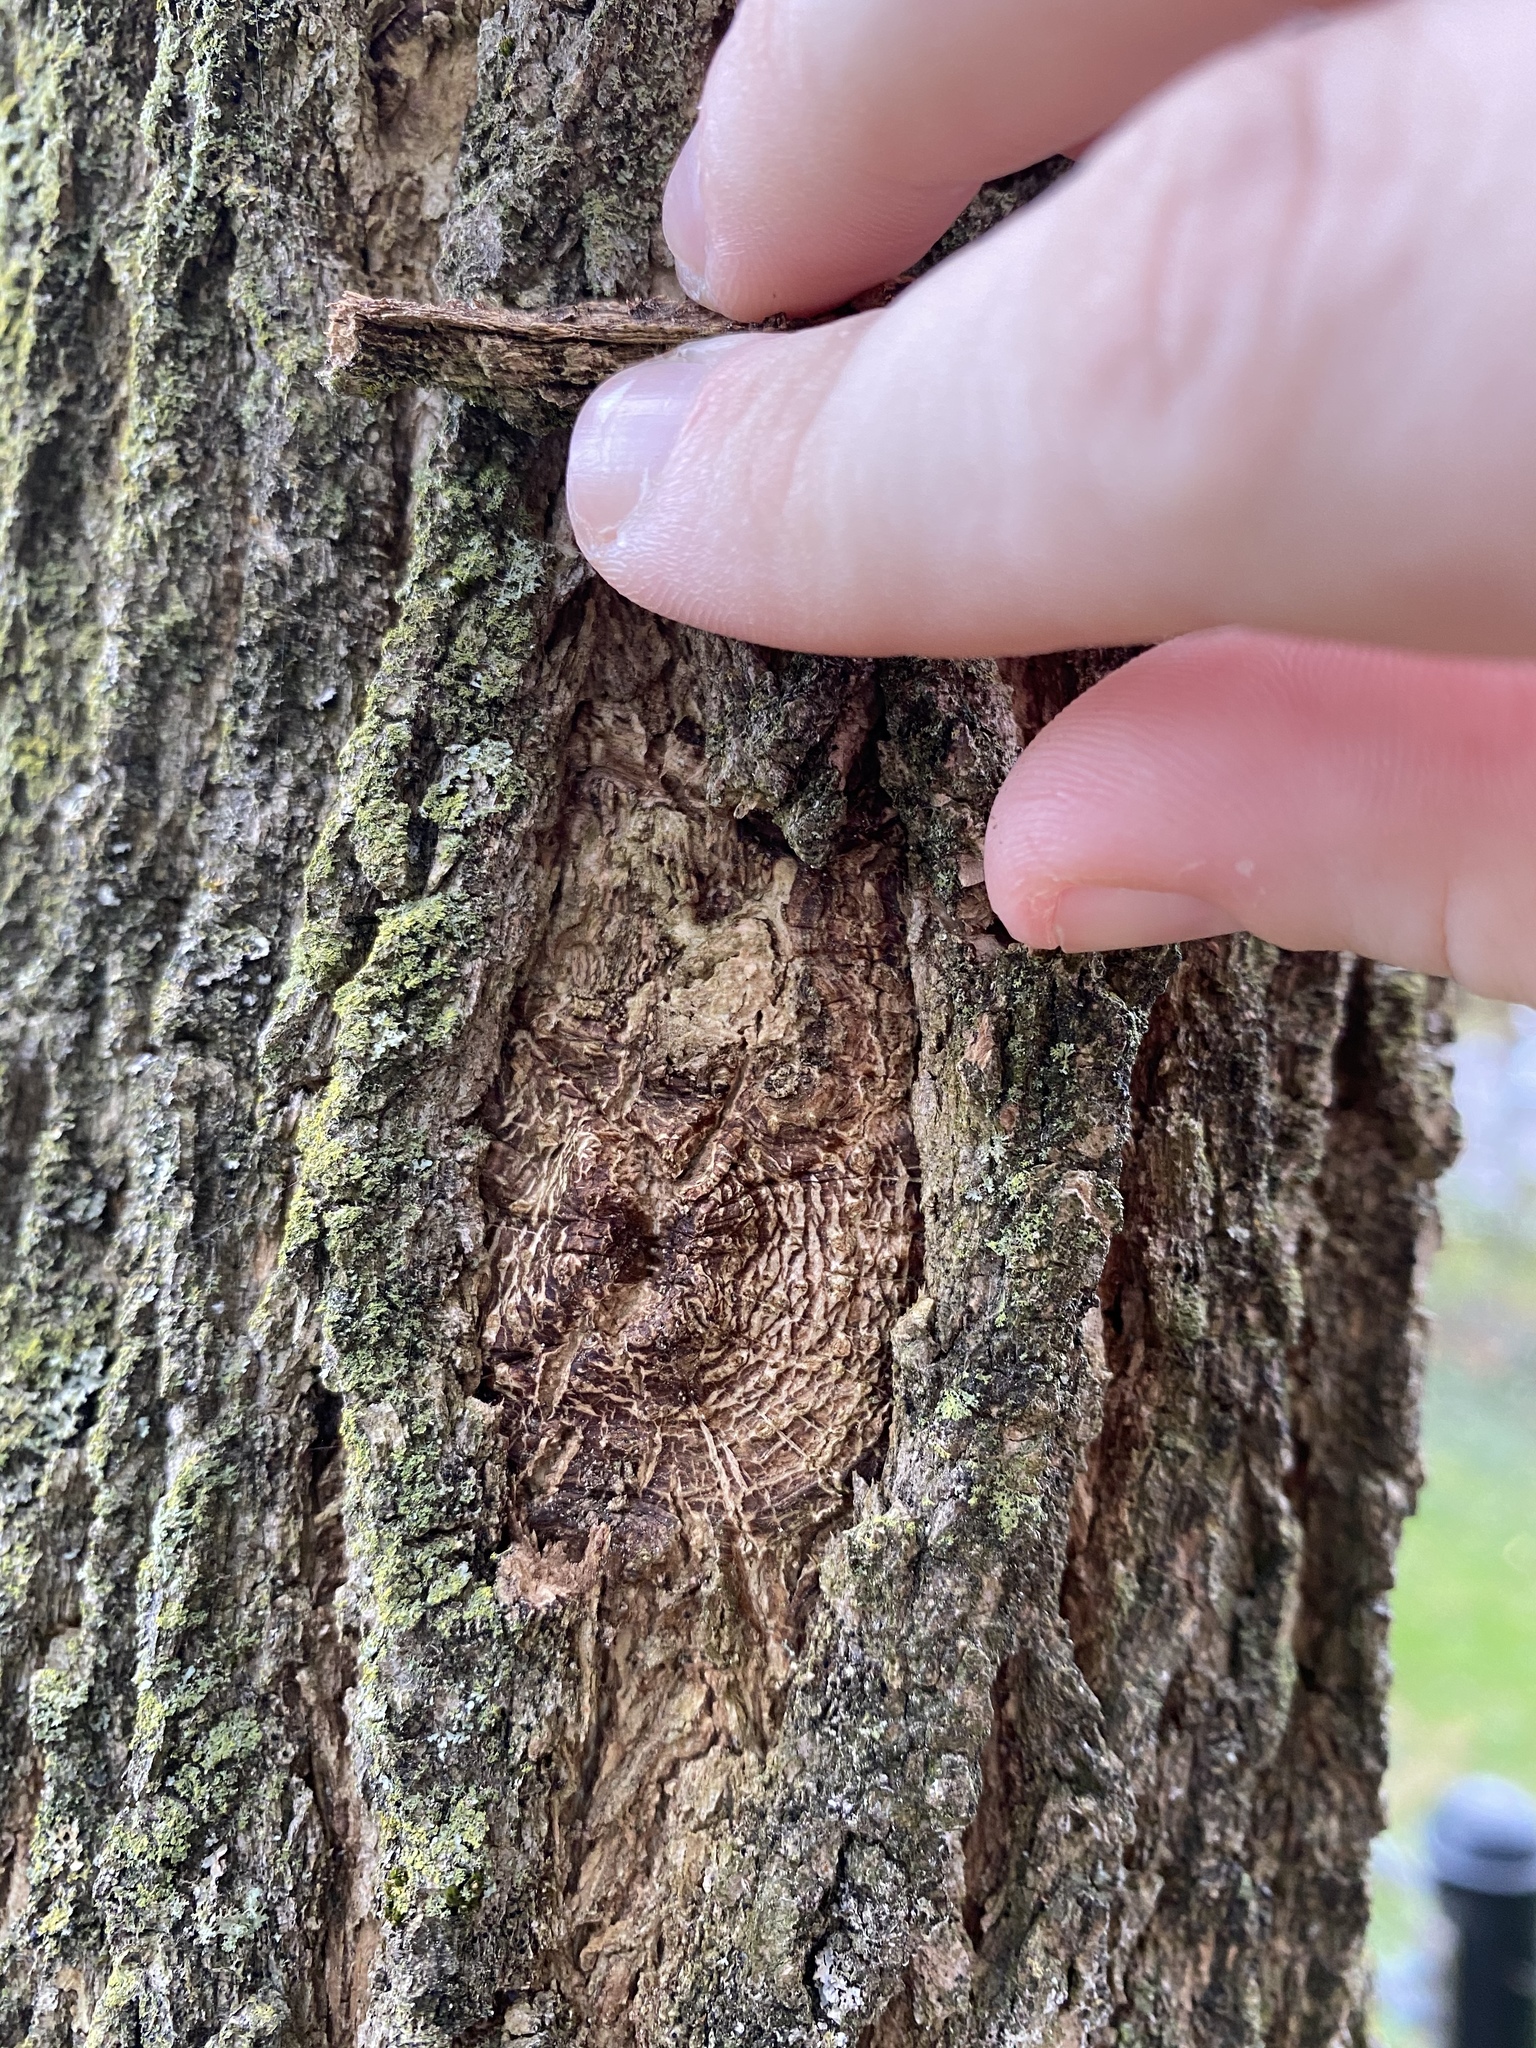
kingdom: Animalia
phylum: Arthropoda
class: Insecta
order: Coleoptera
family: Buprestidae
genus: Agrilus
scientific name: Agrilus planipennis
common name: Emerald ash borer
